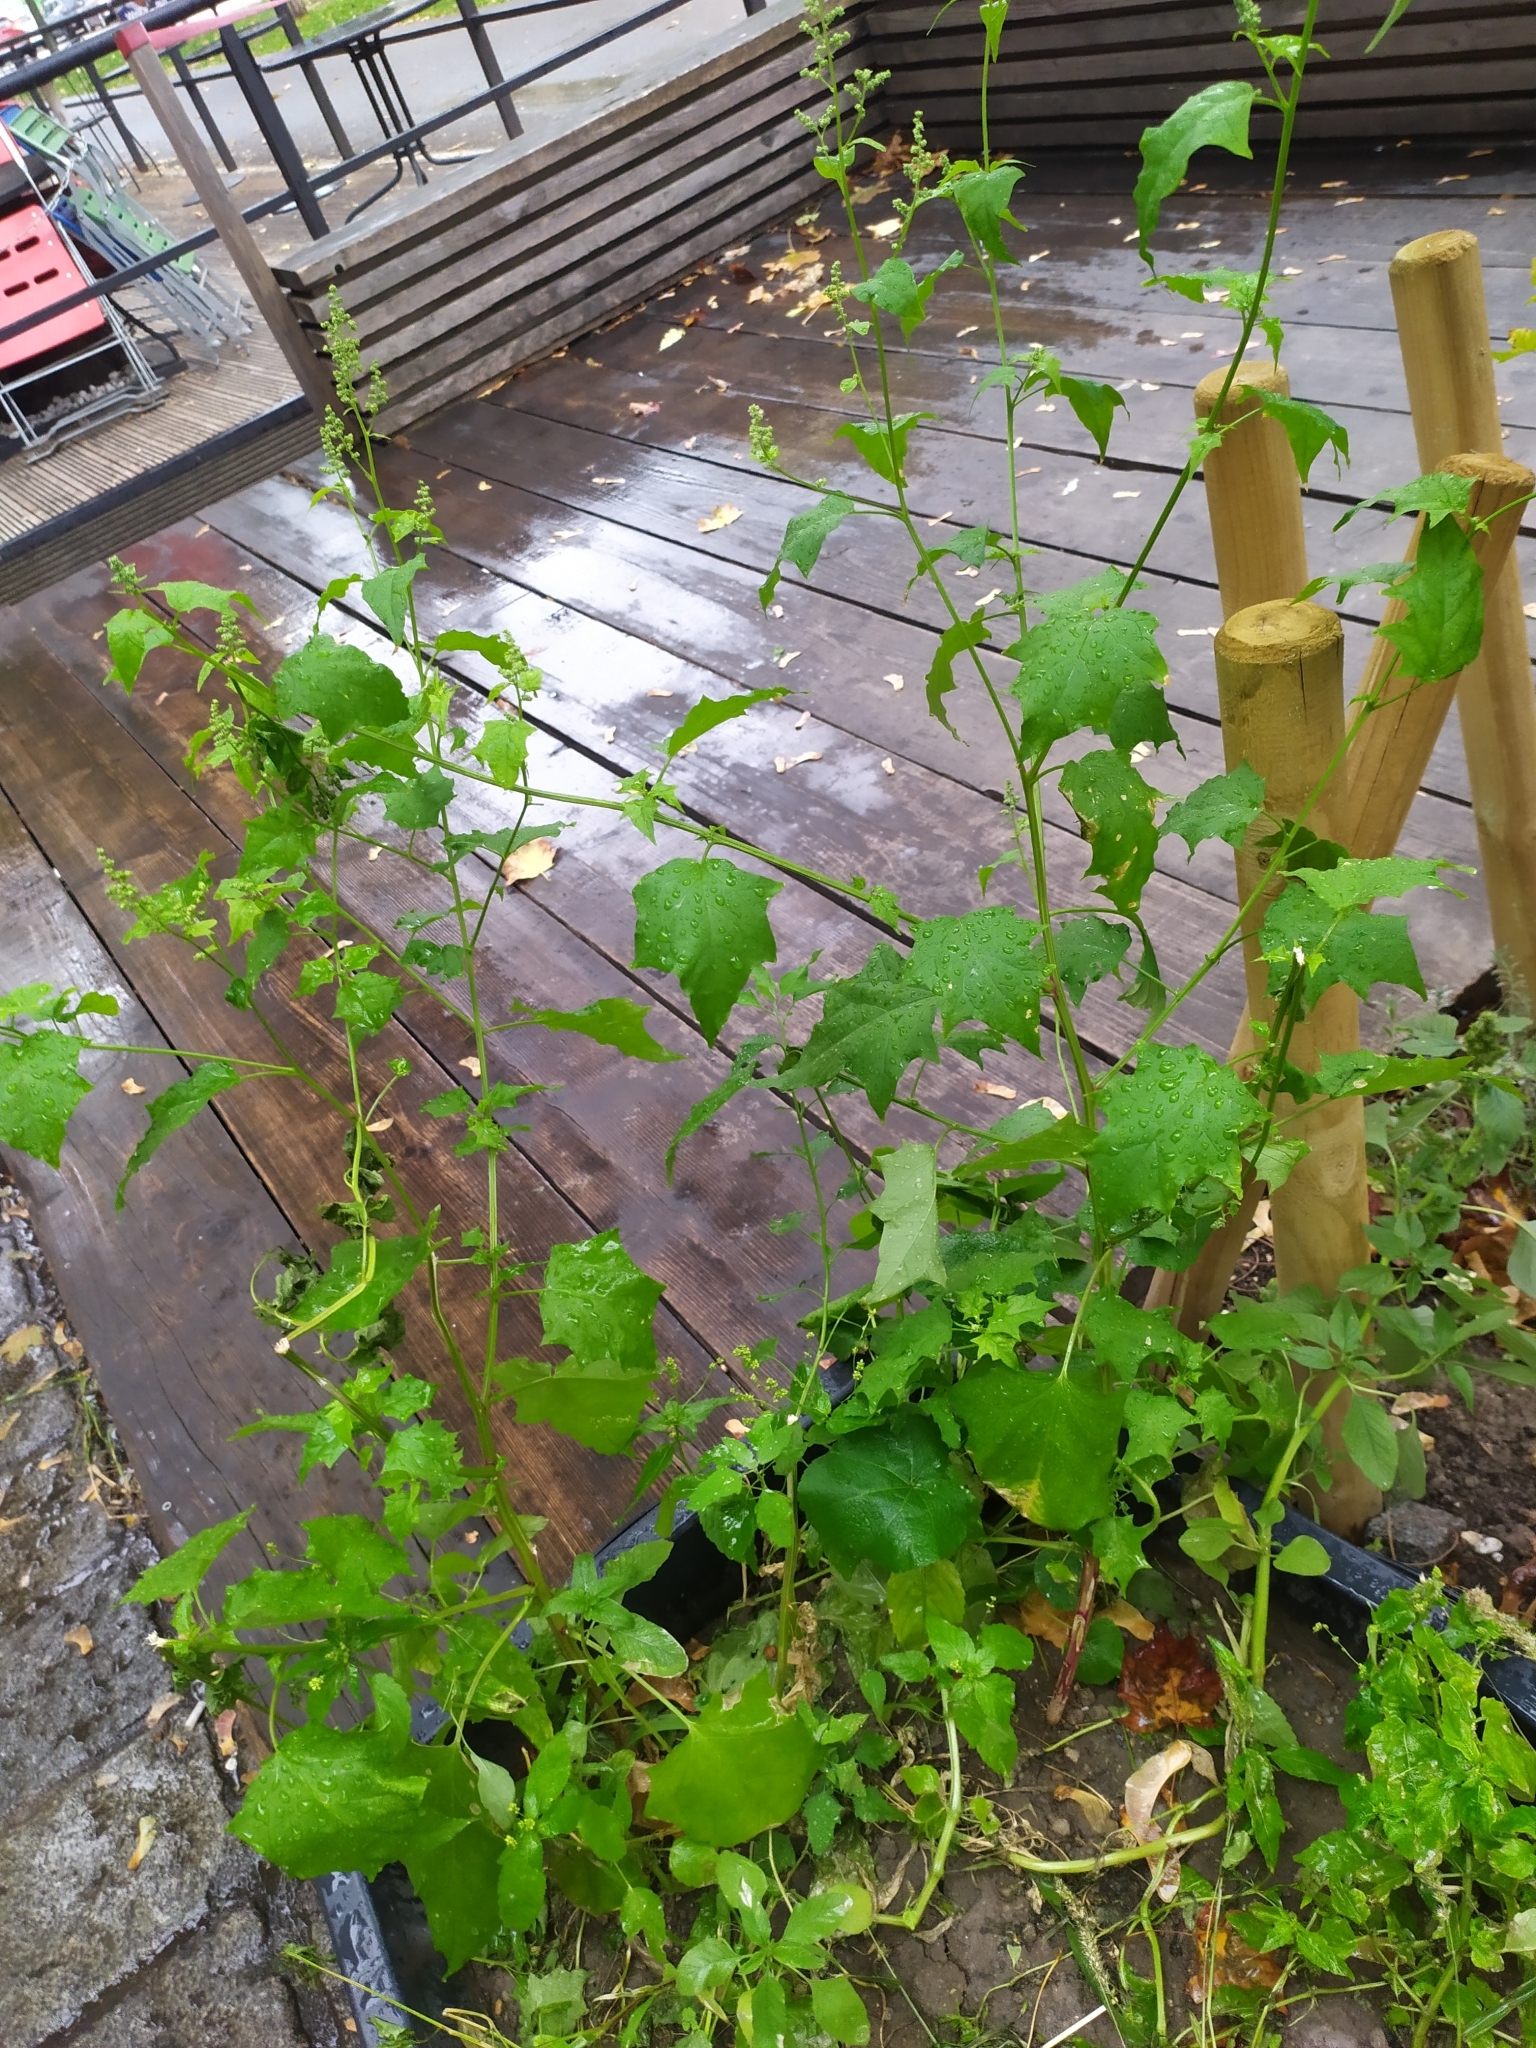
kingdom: Plantae
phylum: Tracheophyta
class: Magnoliopsida
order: Caryophyllales
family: Amaranthaceae
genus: Chenopodiastrum
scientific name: Chenopodiastrum hybridum
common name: Mapleleaf goosefoot
